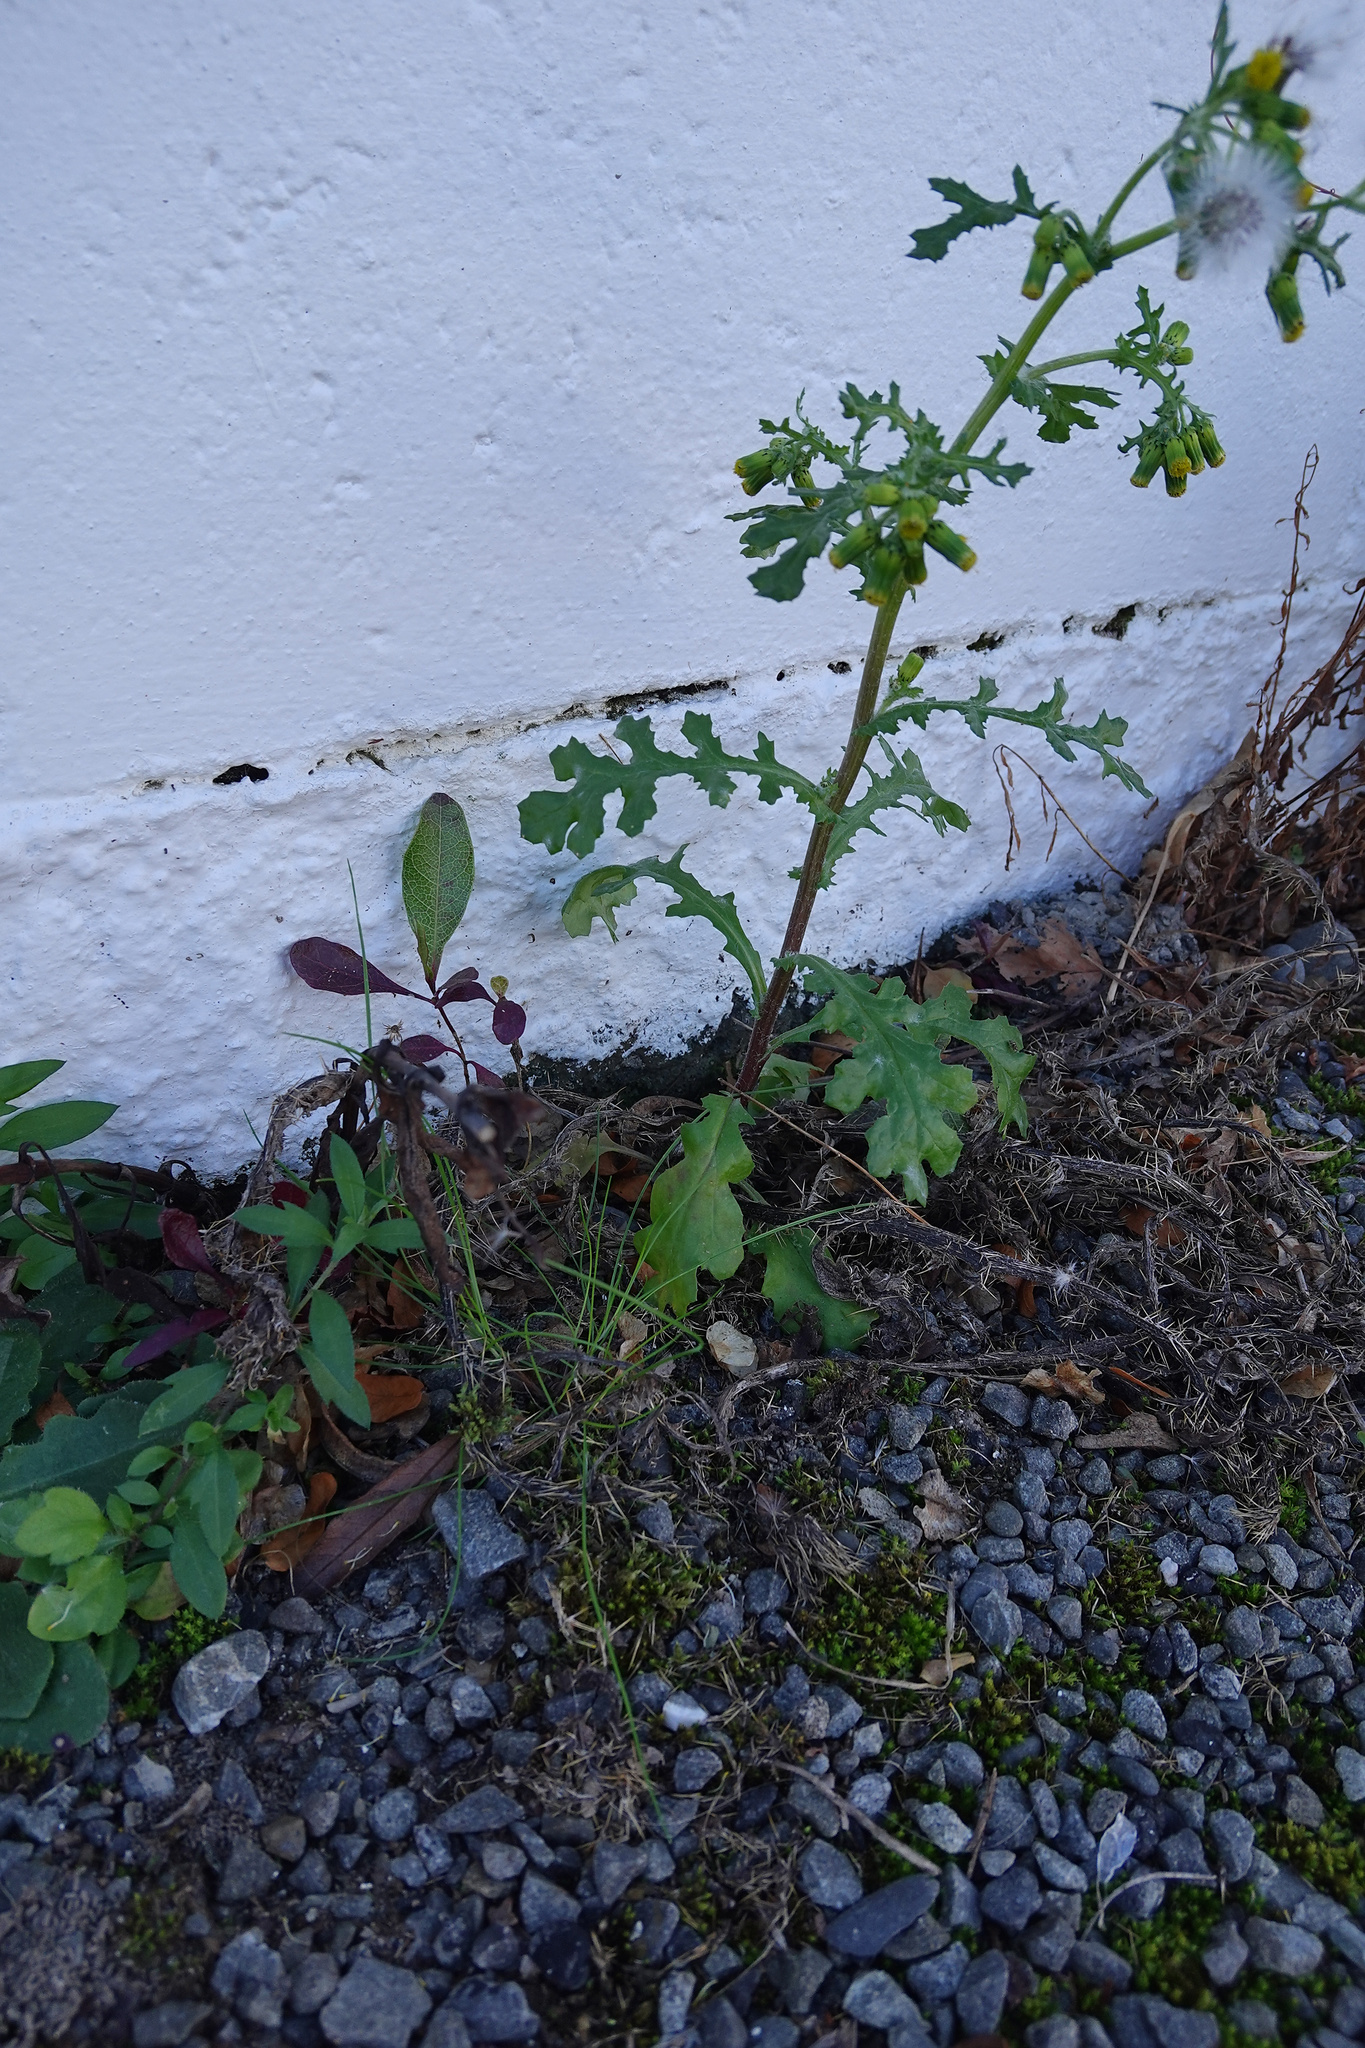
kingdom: Plantae
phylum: Tracheophyta
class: Magnoliopsida
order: Asterales
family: Asteraceae
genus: Senecio
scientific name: Senecio vulgaris
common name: Old-man-in-the-spring
